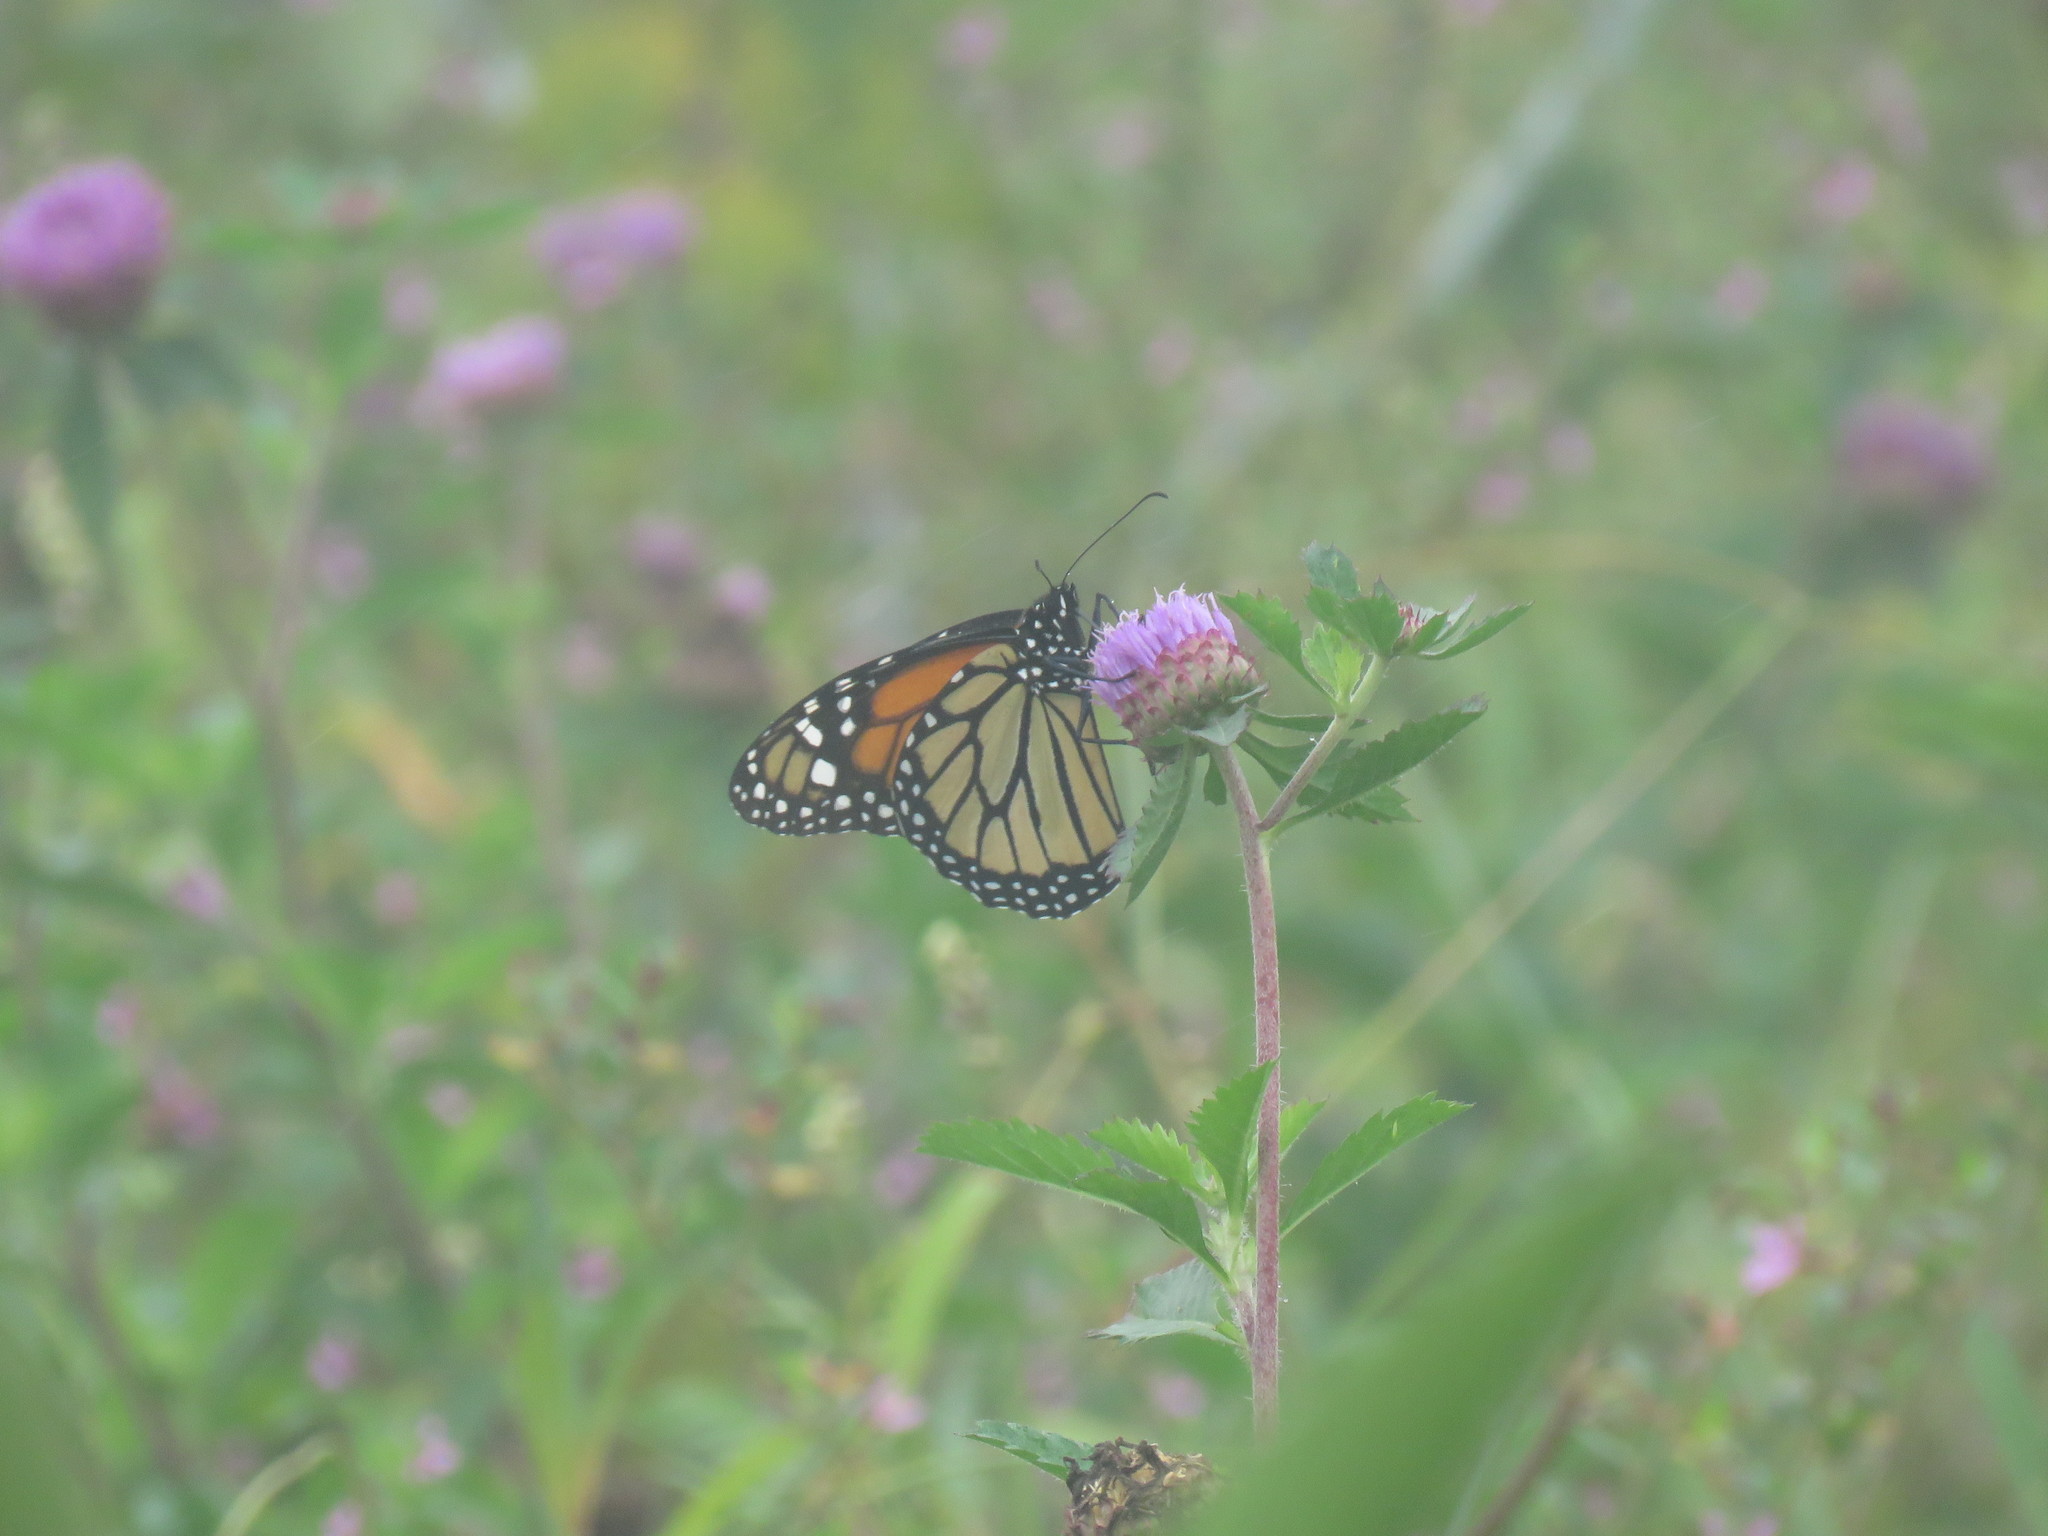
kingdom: Plantae
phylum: Tracheophyta
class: Magnoliopsida
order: Asterales
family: Asteraceae
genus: Centratherum
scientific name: Centratherum punctatum
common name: Larkdaisy
